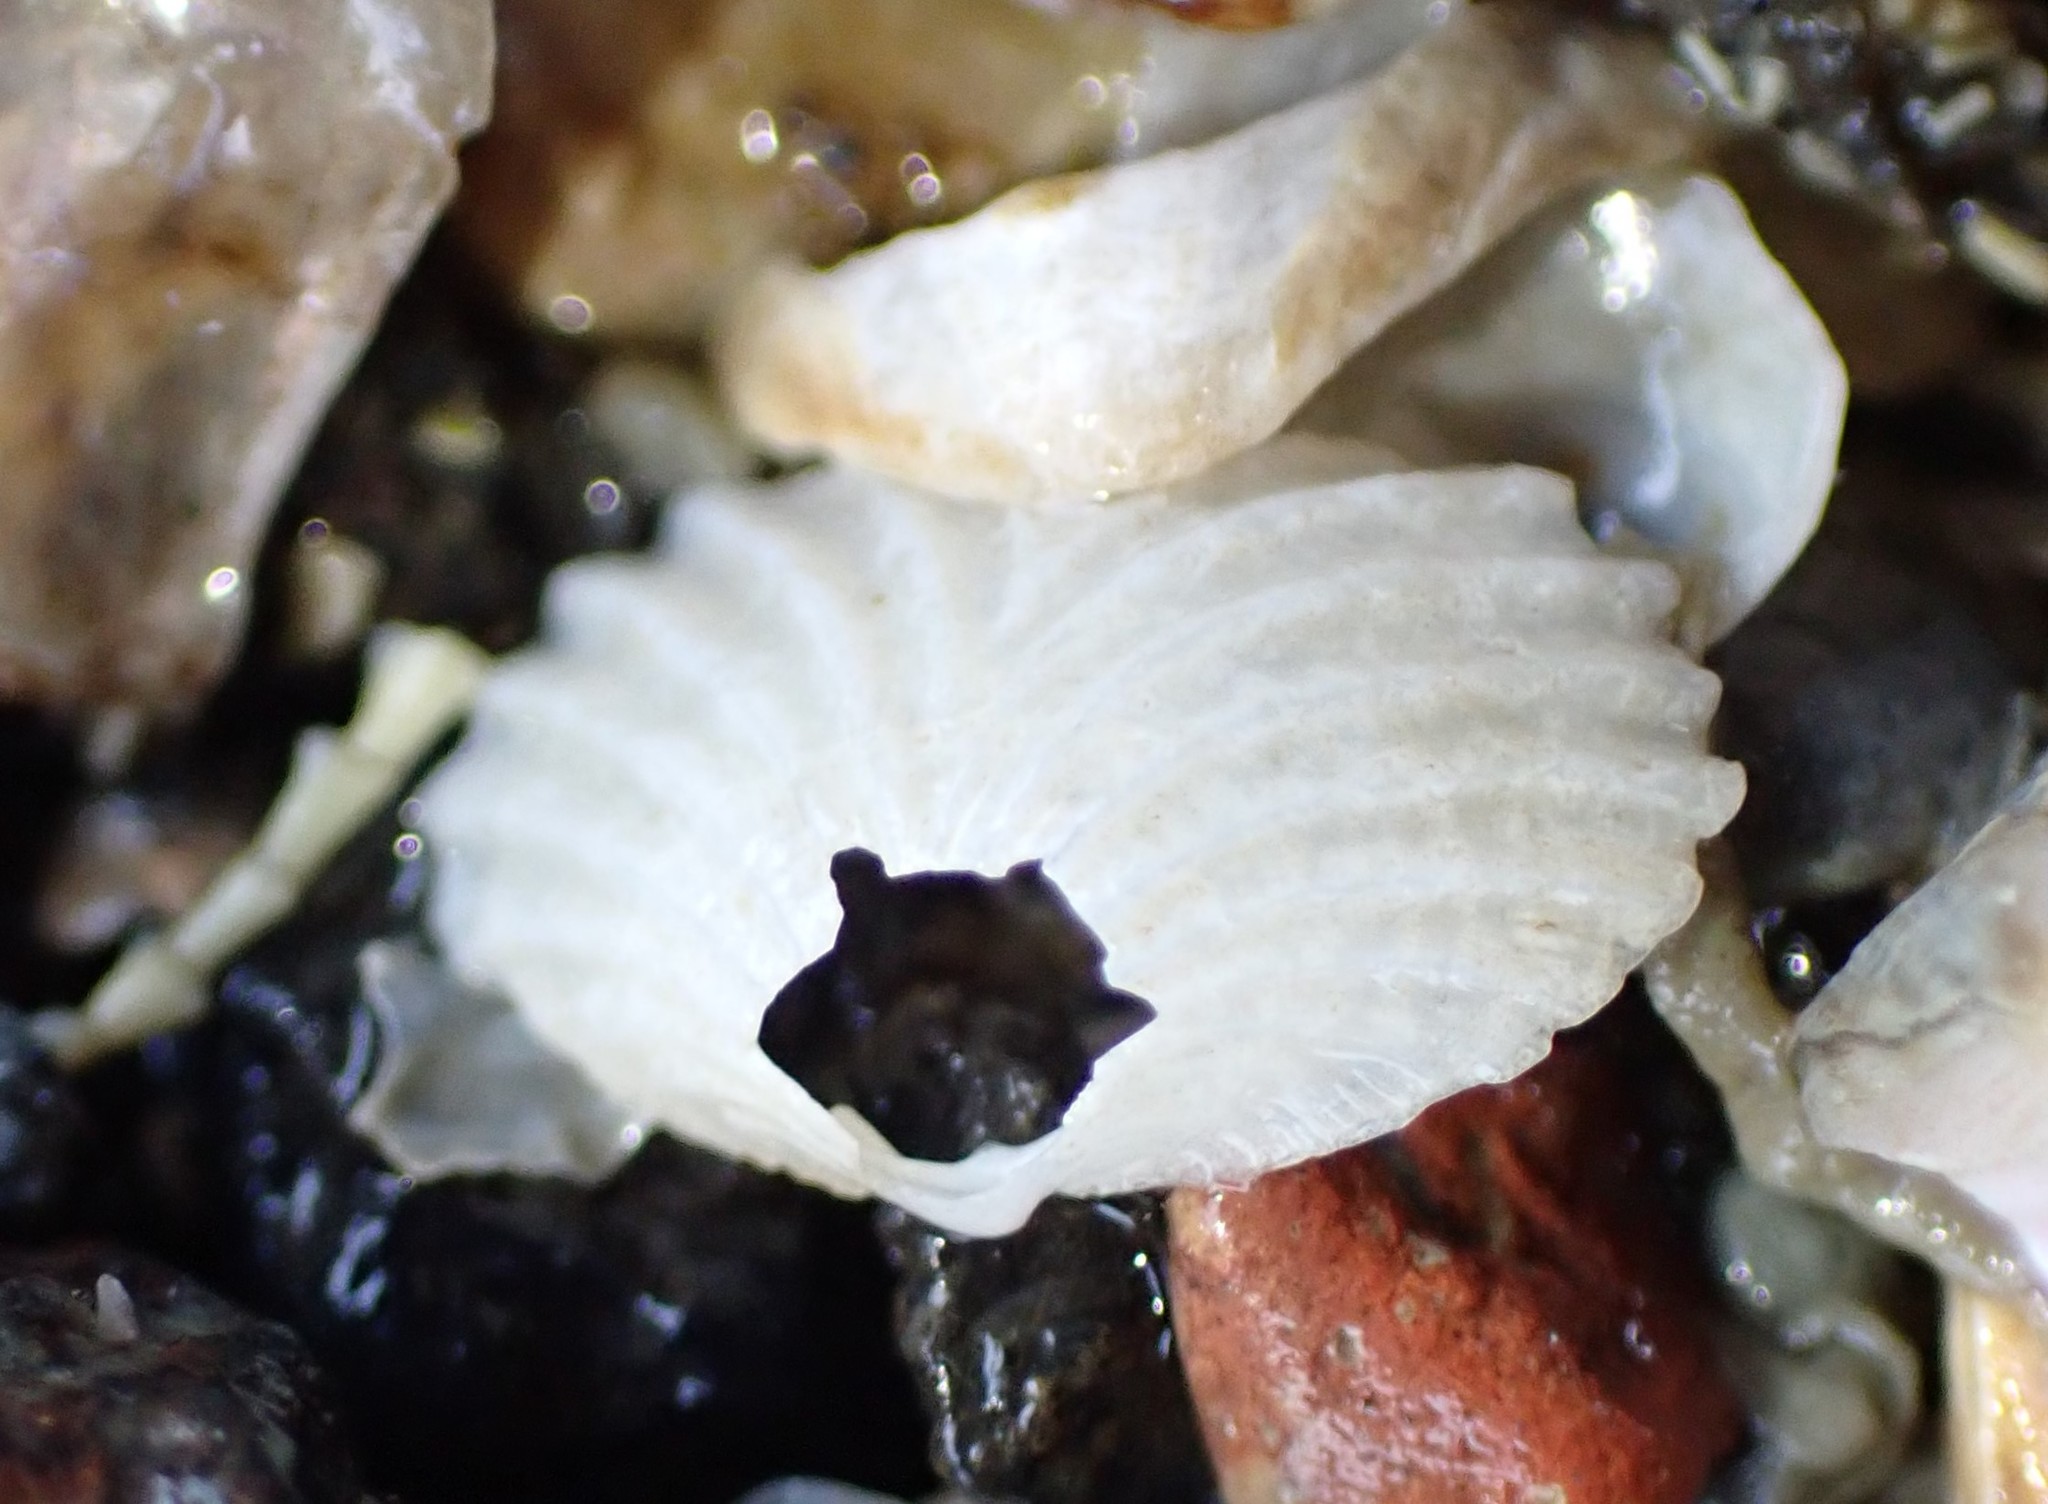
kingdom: Animalia
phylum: Mollusca
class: Bivalvia
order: Galeommatida
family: Lasaeidae
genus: Myllita
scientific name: Myllita stowei
